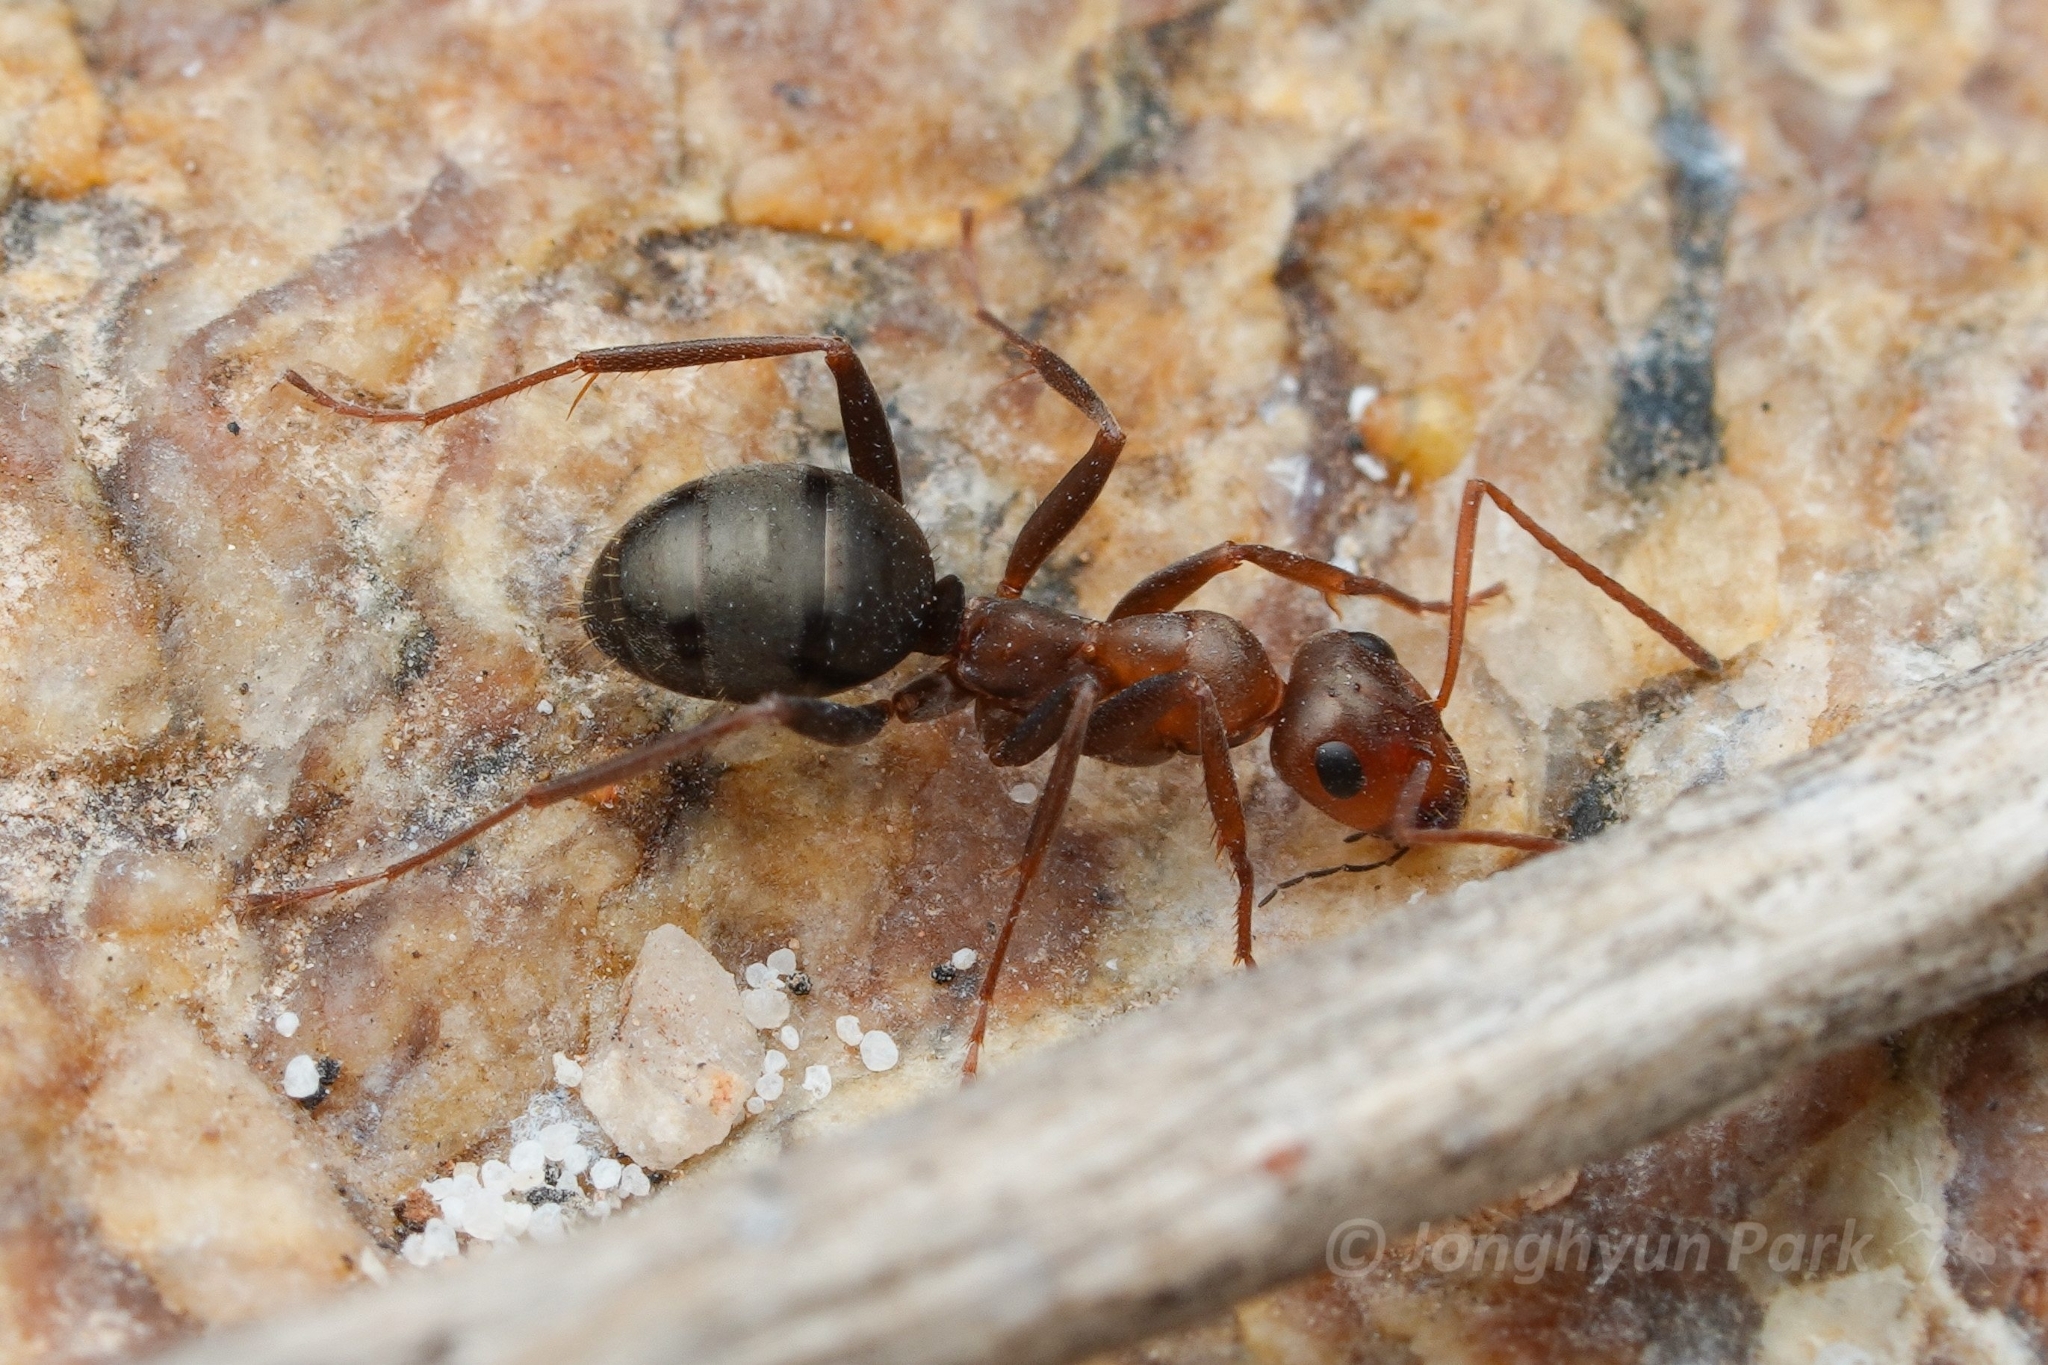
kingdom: Animalia
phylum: Arthropoda
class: Insecta
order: Hymenoptera
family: Formicidae
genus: Formica
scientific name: Formica foreliana
